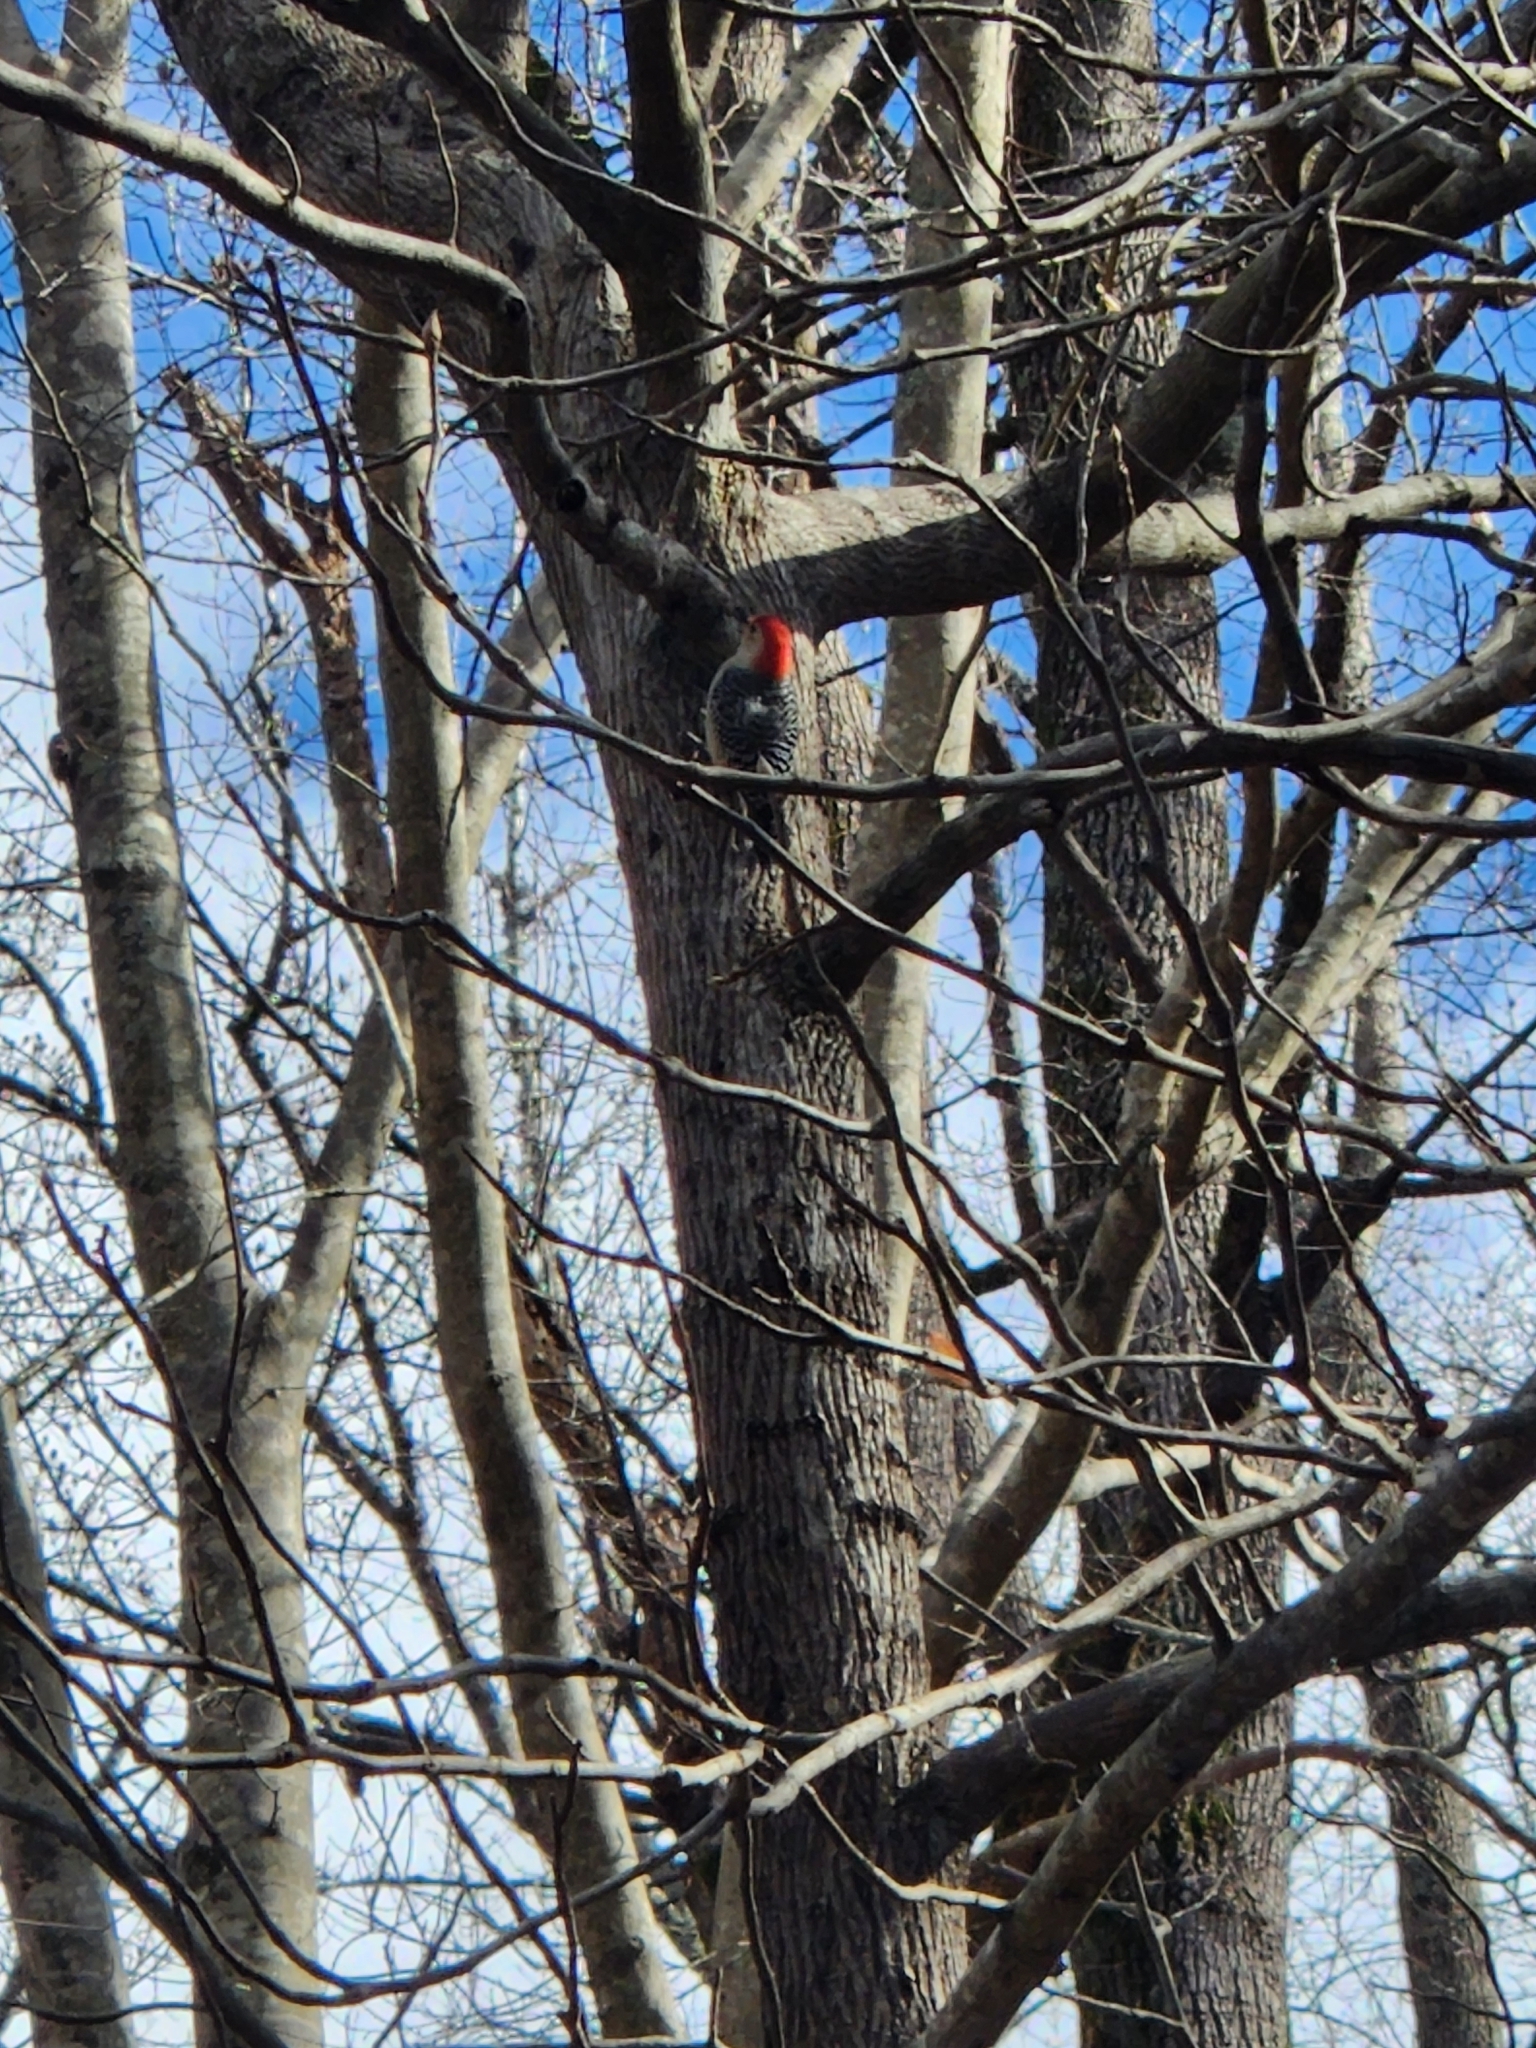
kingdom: Animalia
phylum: Chordata
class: Aves
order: Piciformes
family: Picidae
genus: Melanerpes
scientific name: Melanerpes carolinus
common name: Red-bellied woodpecker
